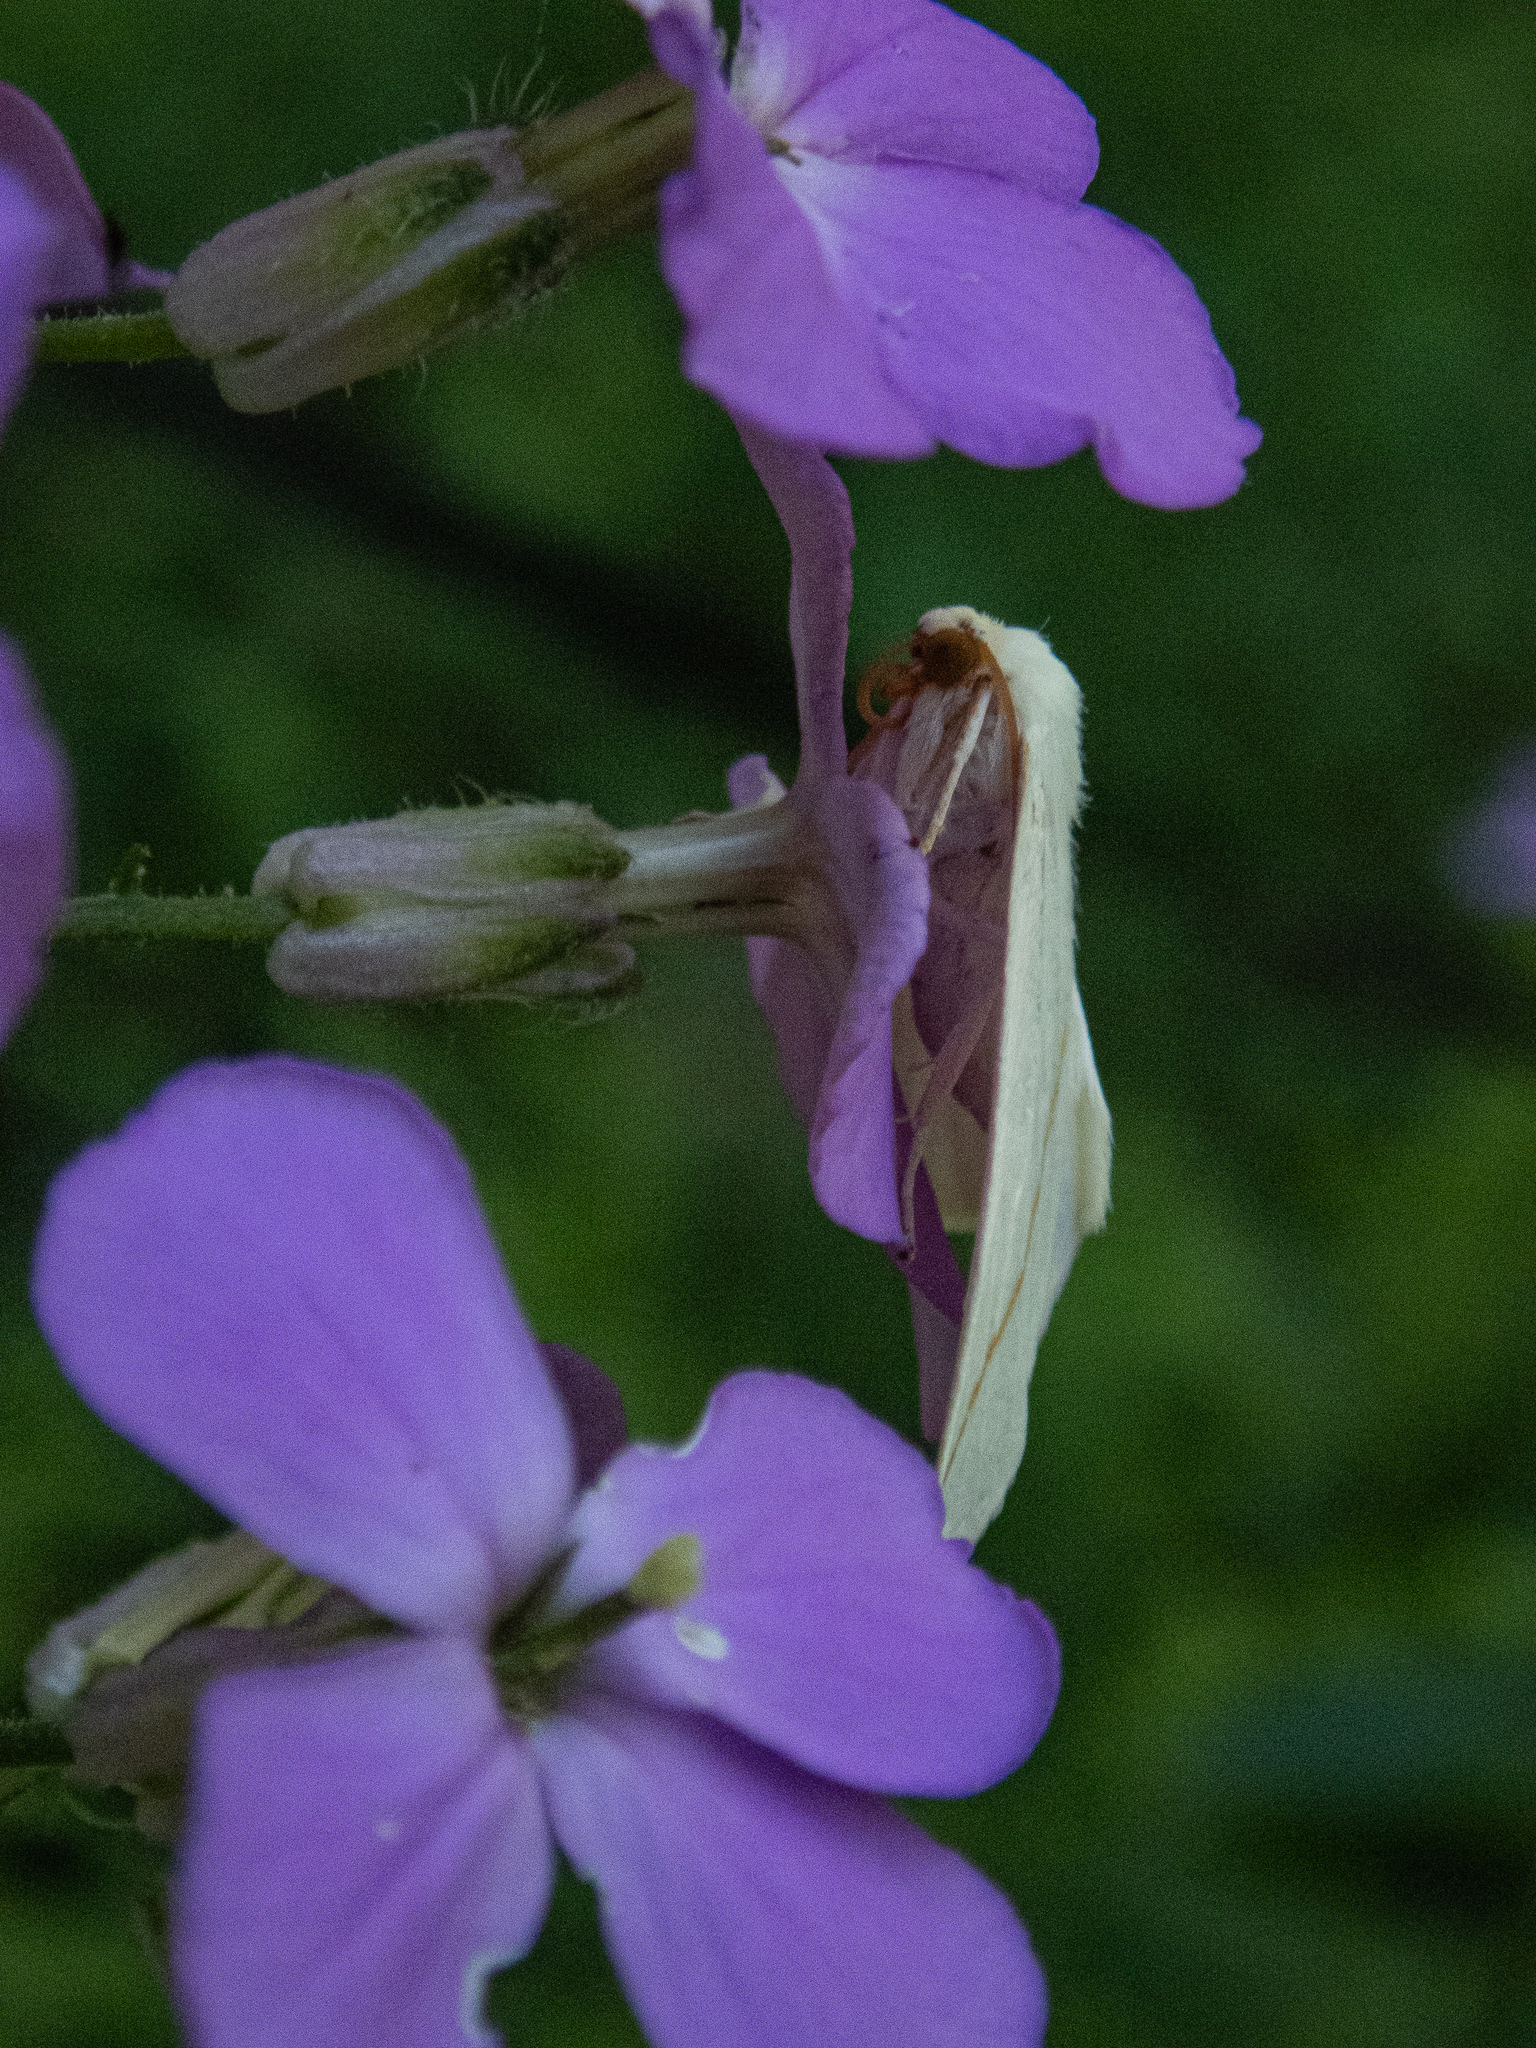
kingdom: Animalia
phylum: Arthropoda
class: Insecta
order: Lepidoptera
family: Geometridae
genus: Tetracis
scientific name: Tetracis cachexiata
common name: White slant-line
